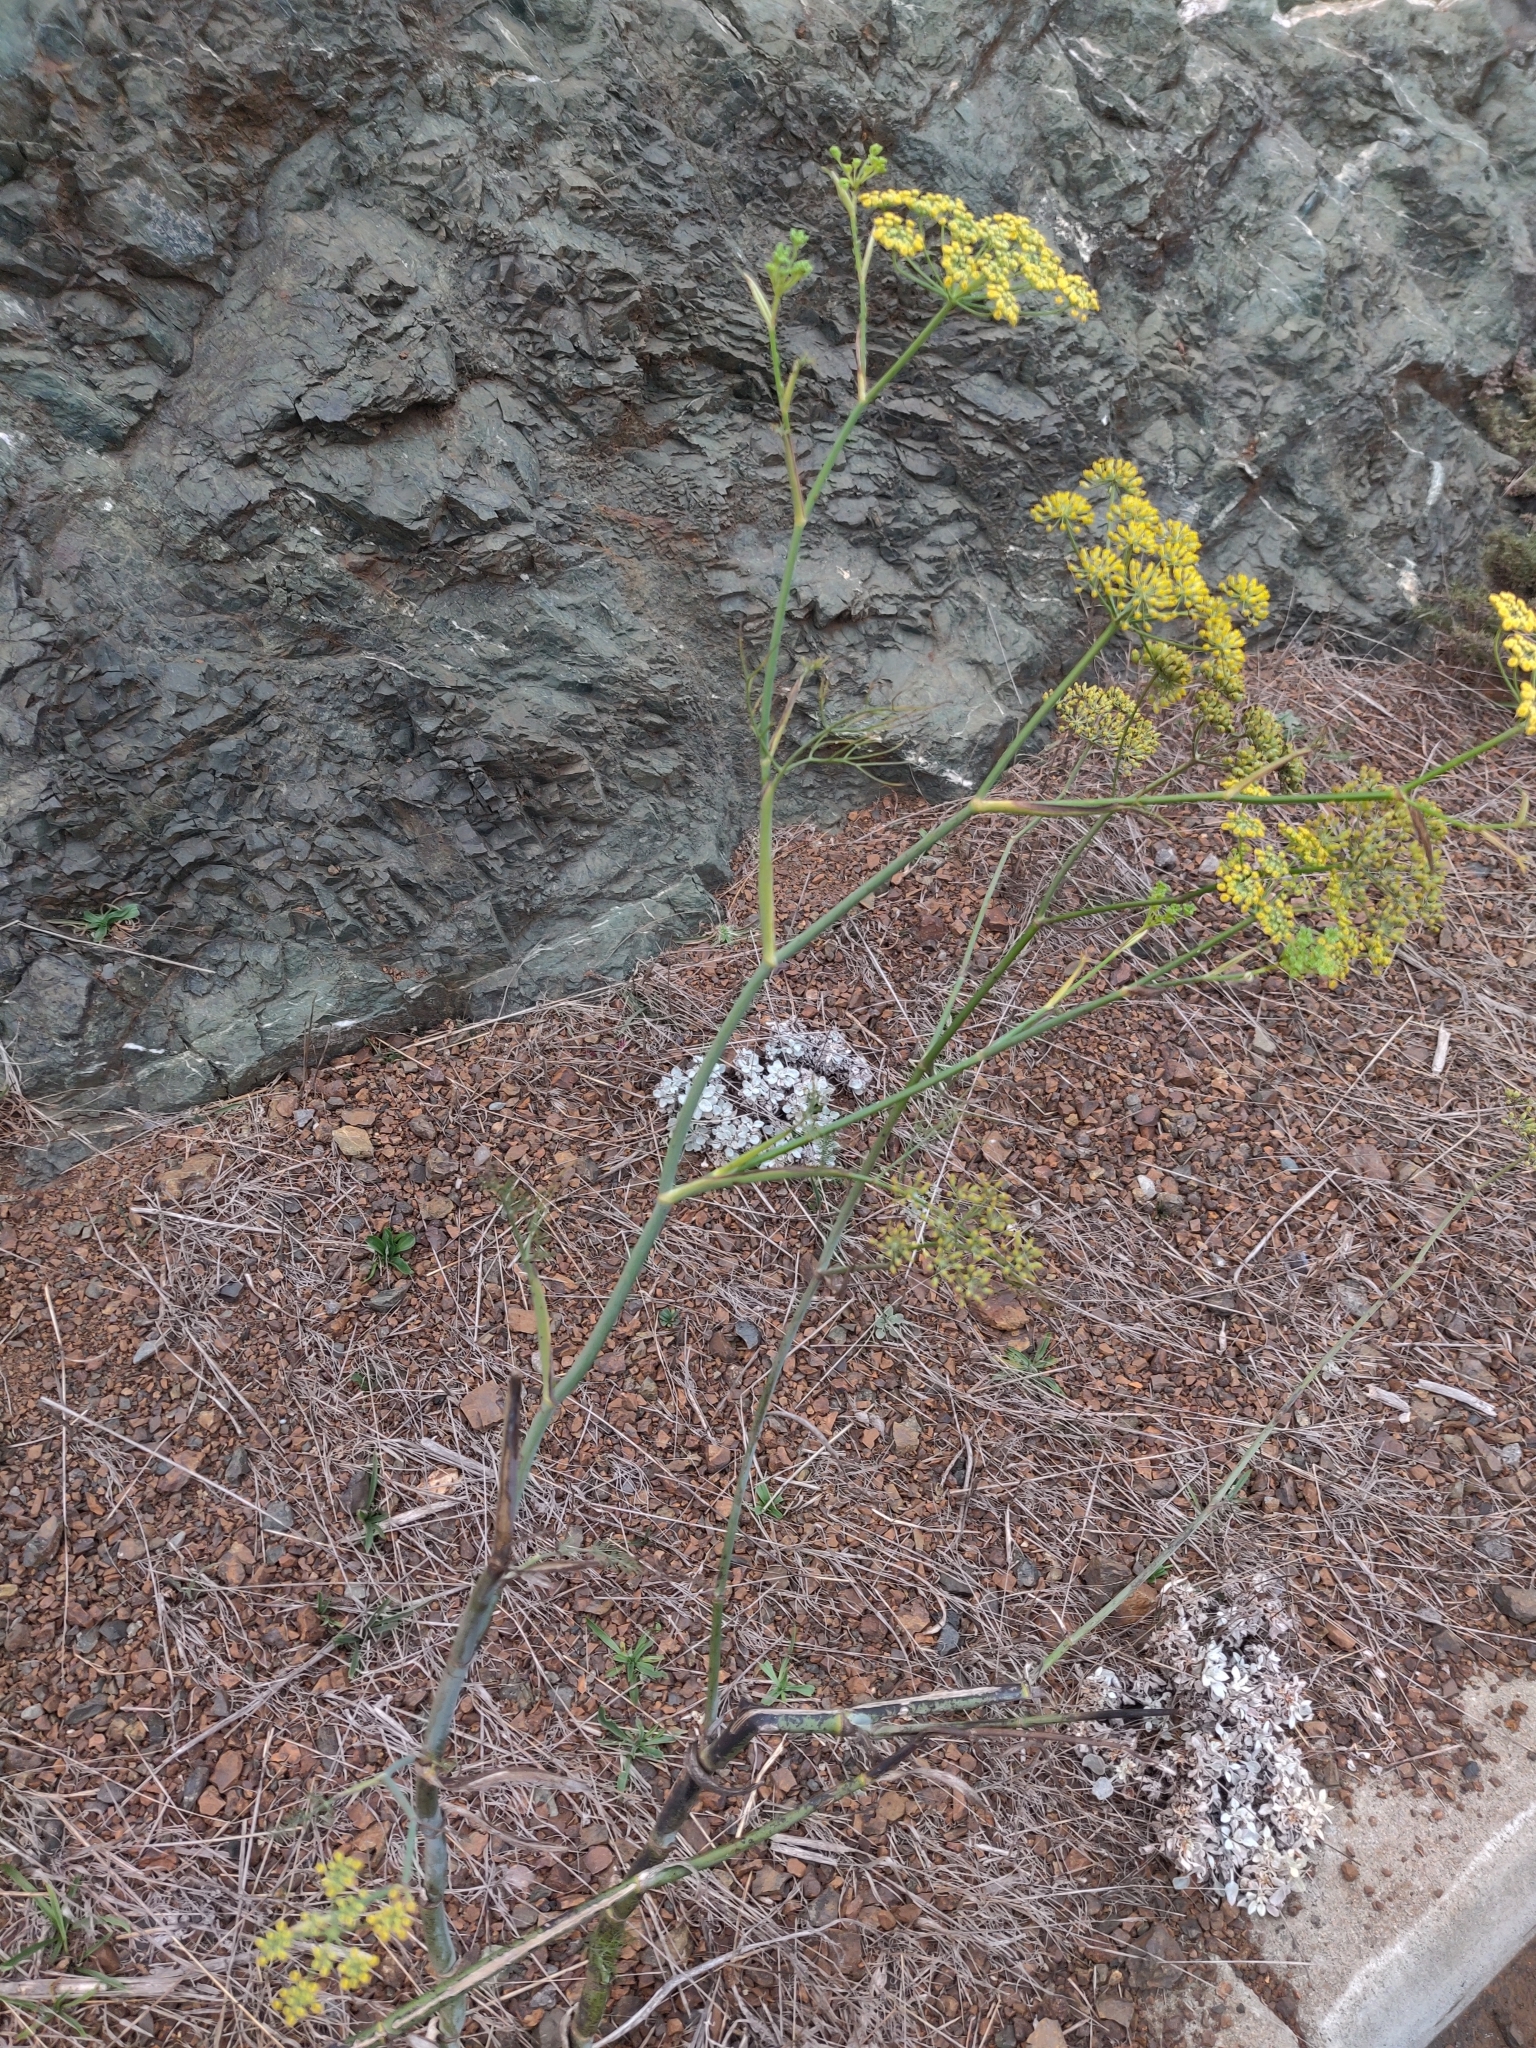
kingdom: Plantae
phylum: Tracheophyta
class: Magnoliopsida
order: Apiales
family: Apiaceae
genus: Foeniculum
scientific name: Foeniculum vulgare
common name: Fennel
